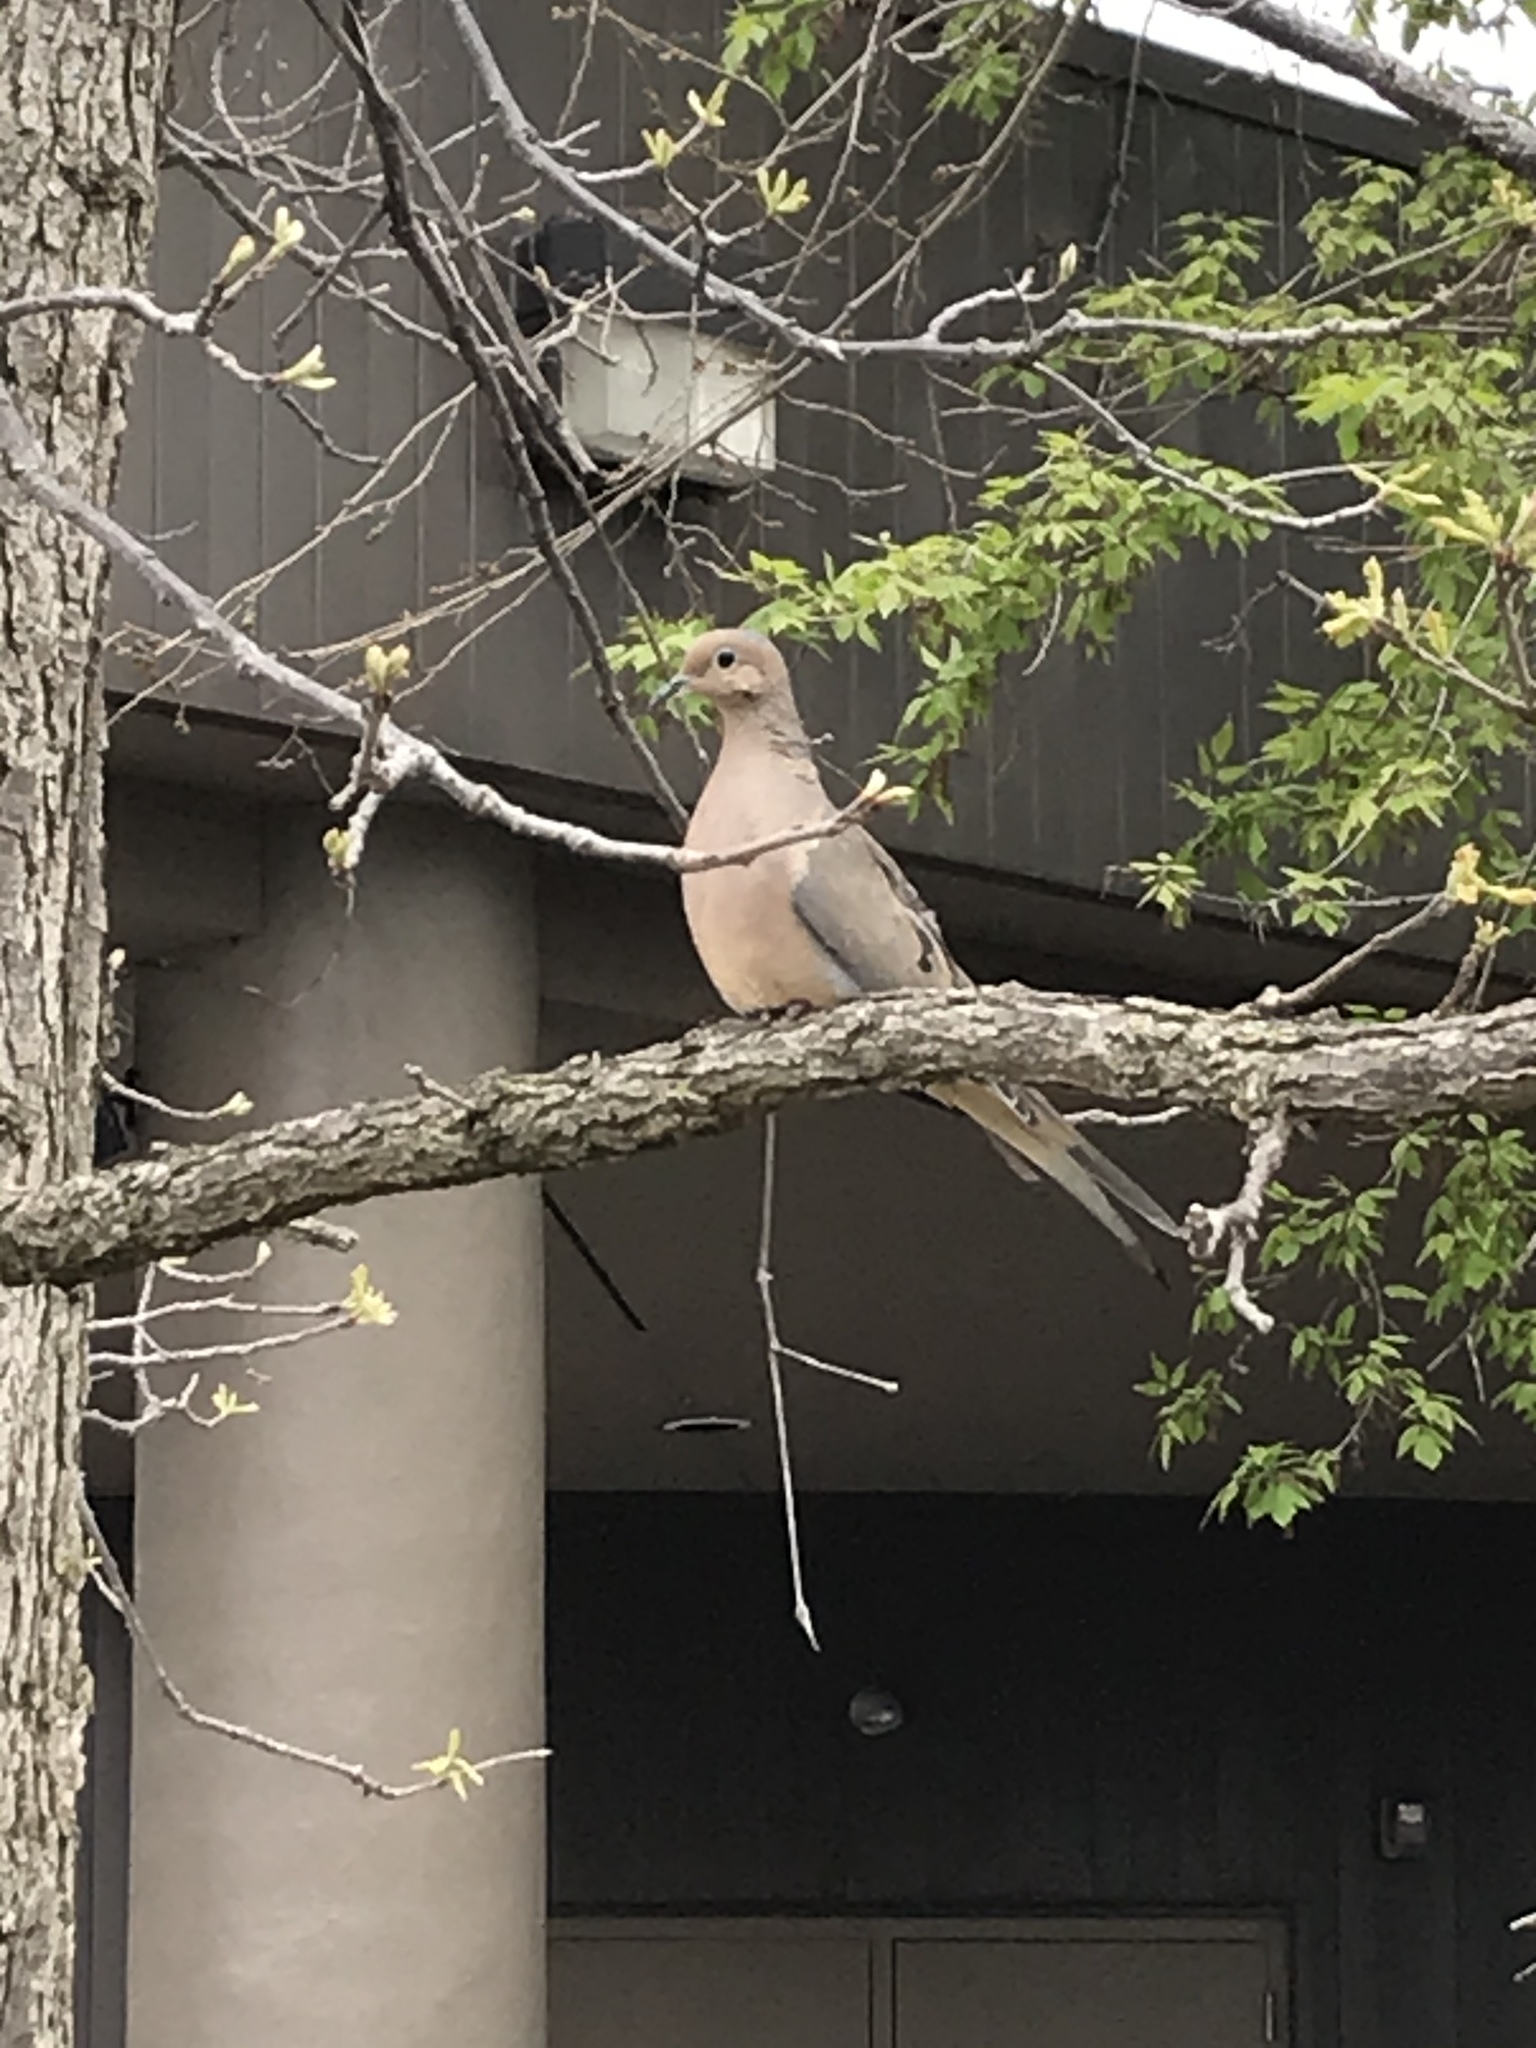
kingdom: Animalia
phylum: Chordata
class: Aves
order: Columbiformes
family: Columbidae
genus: Zenaida
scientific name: Zenaida macroura
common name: Mourning dove
